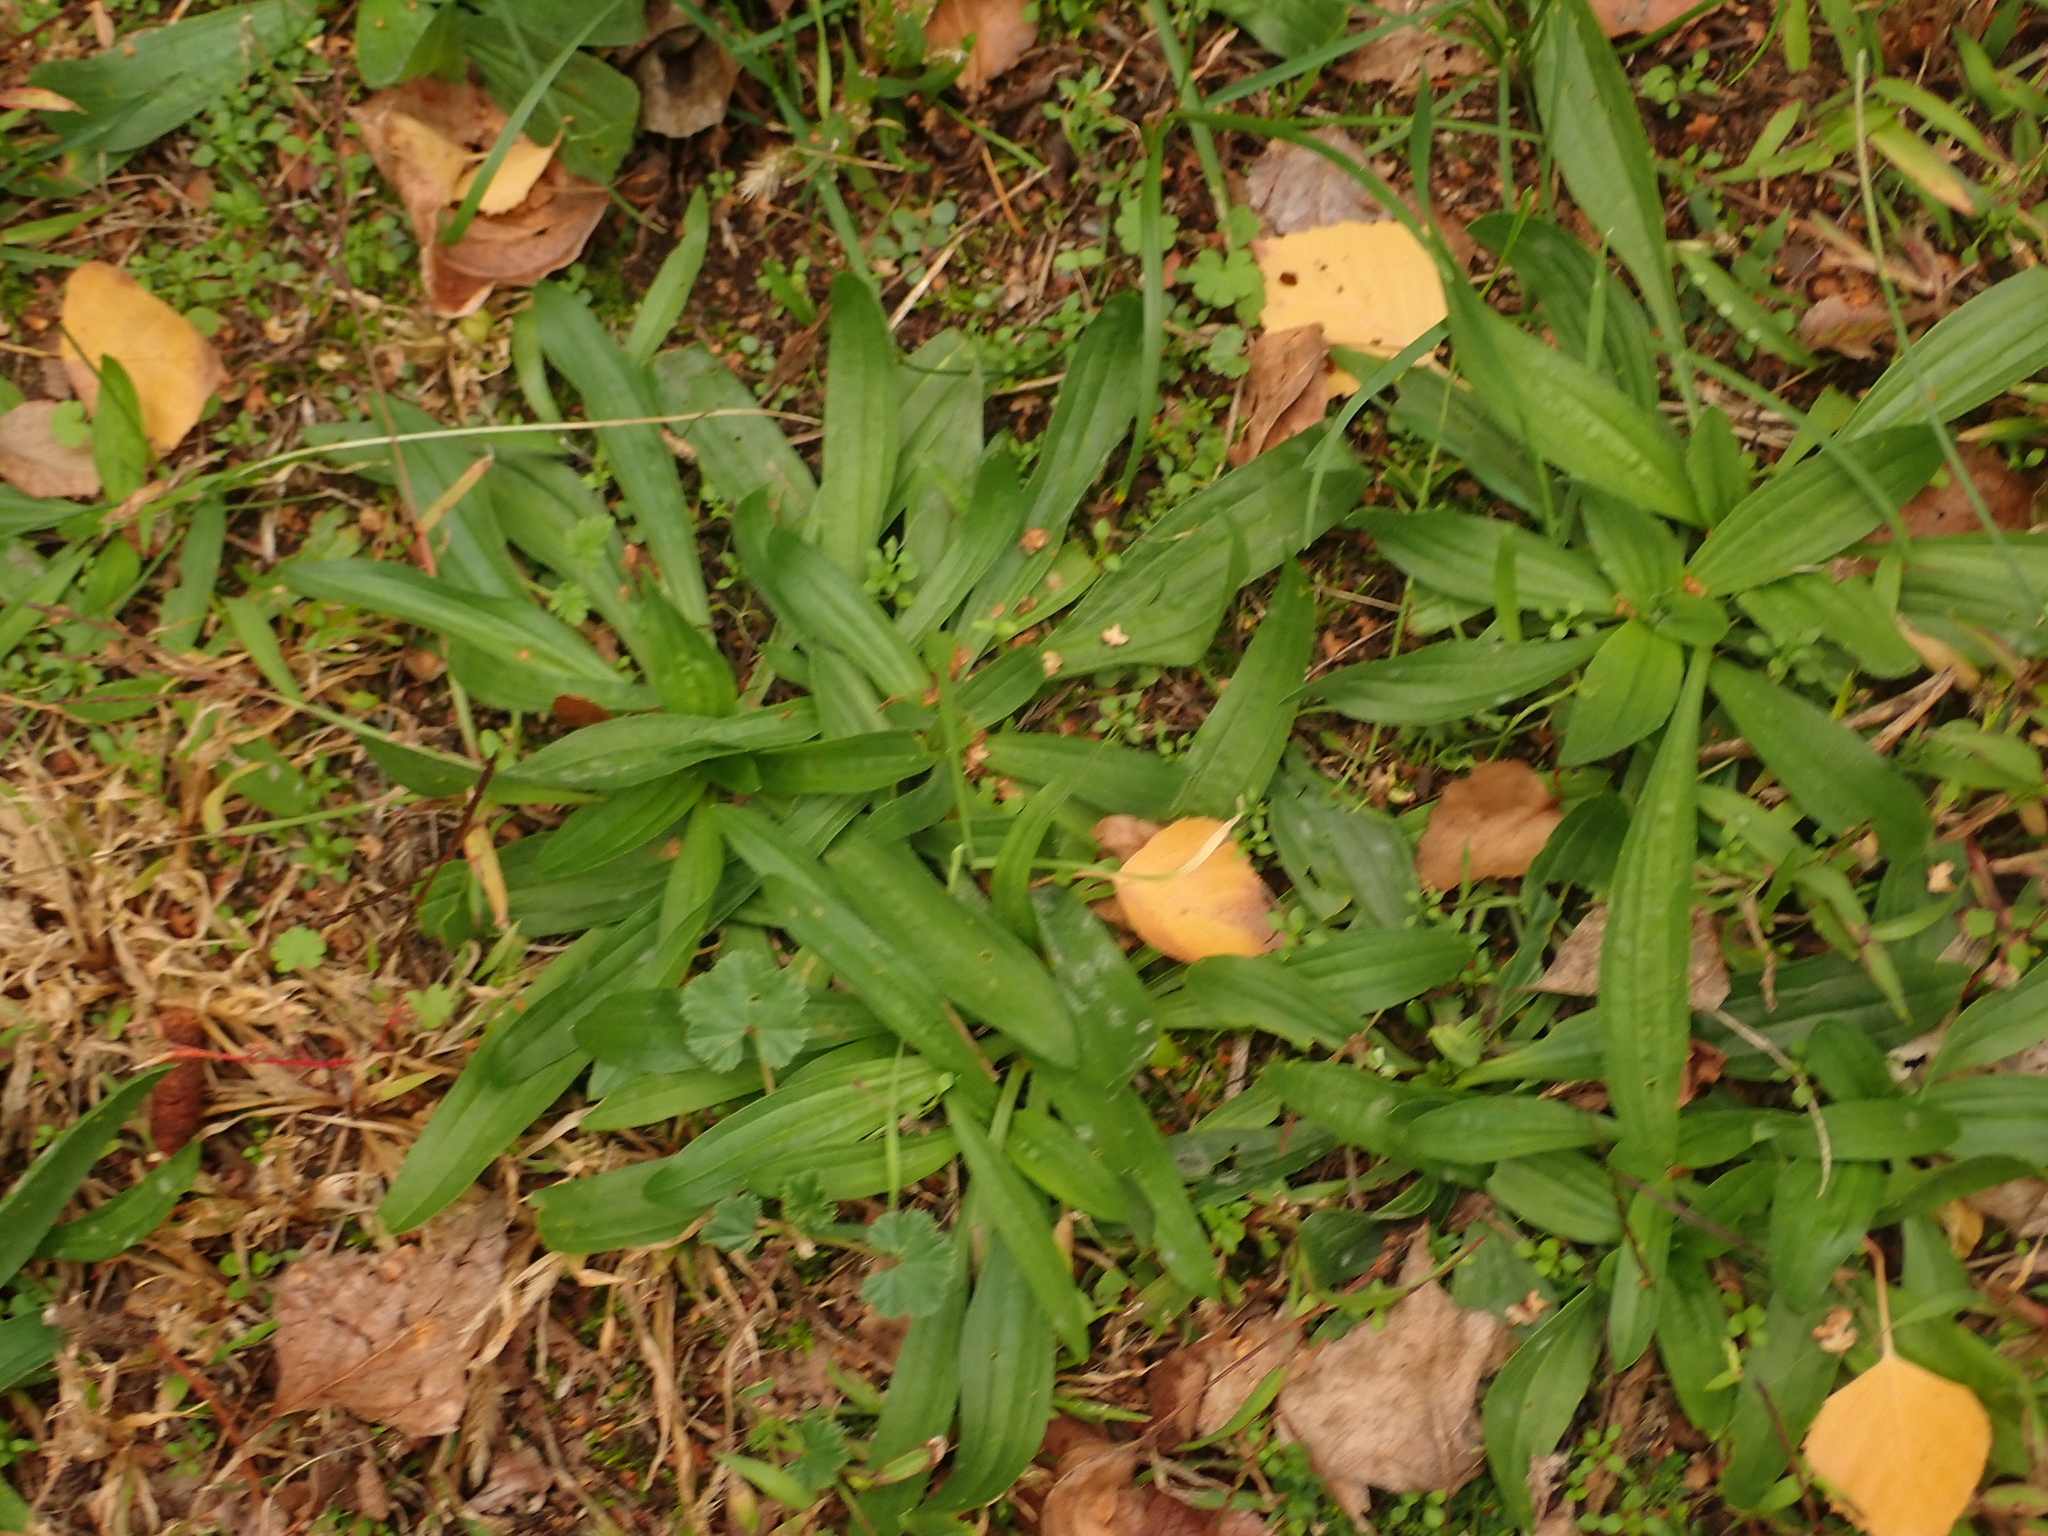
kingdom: Plantae
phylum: Tracheophyta
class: Magnoliopsida
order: Lamiales
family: Plantaginaceae
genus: Plantago
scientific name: Plantago lanceolata
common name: Ribwort plantain
